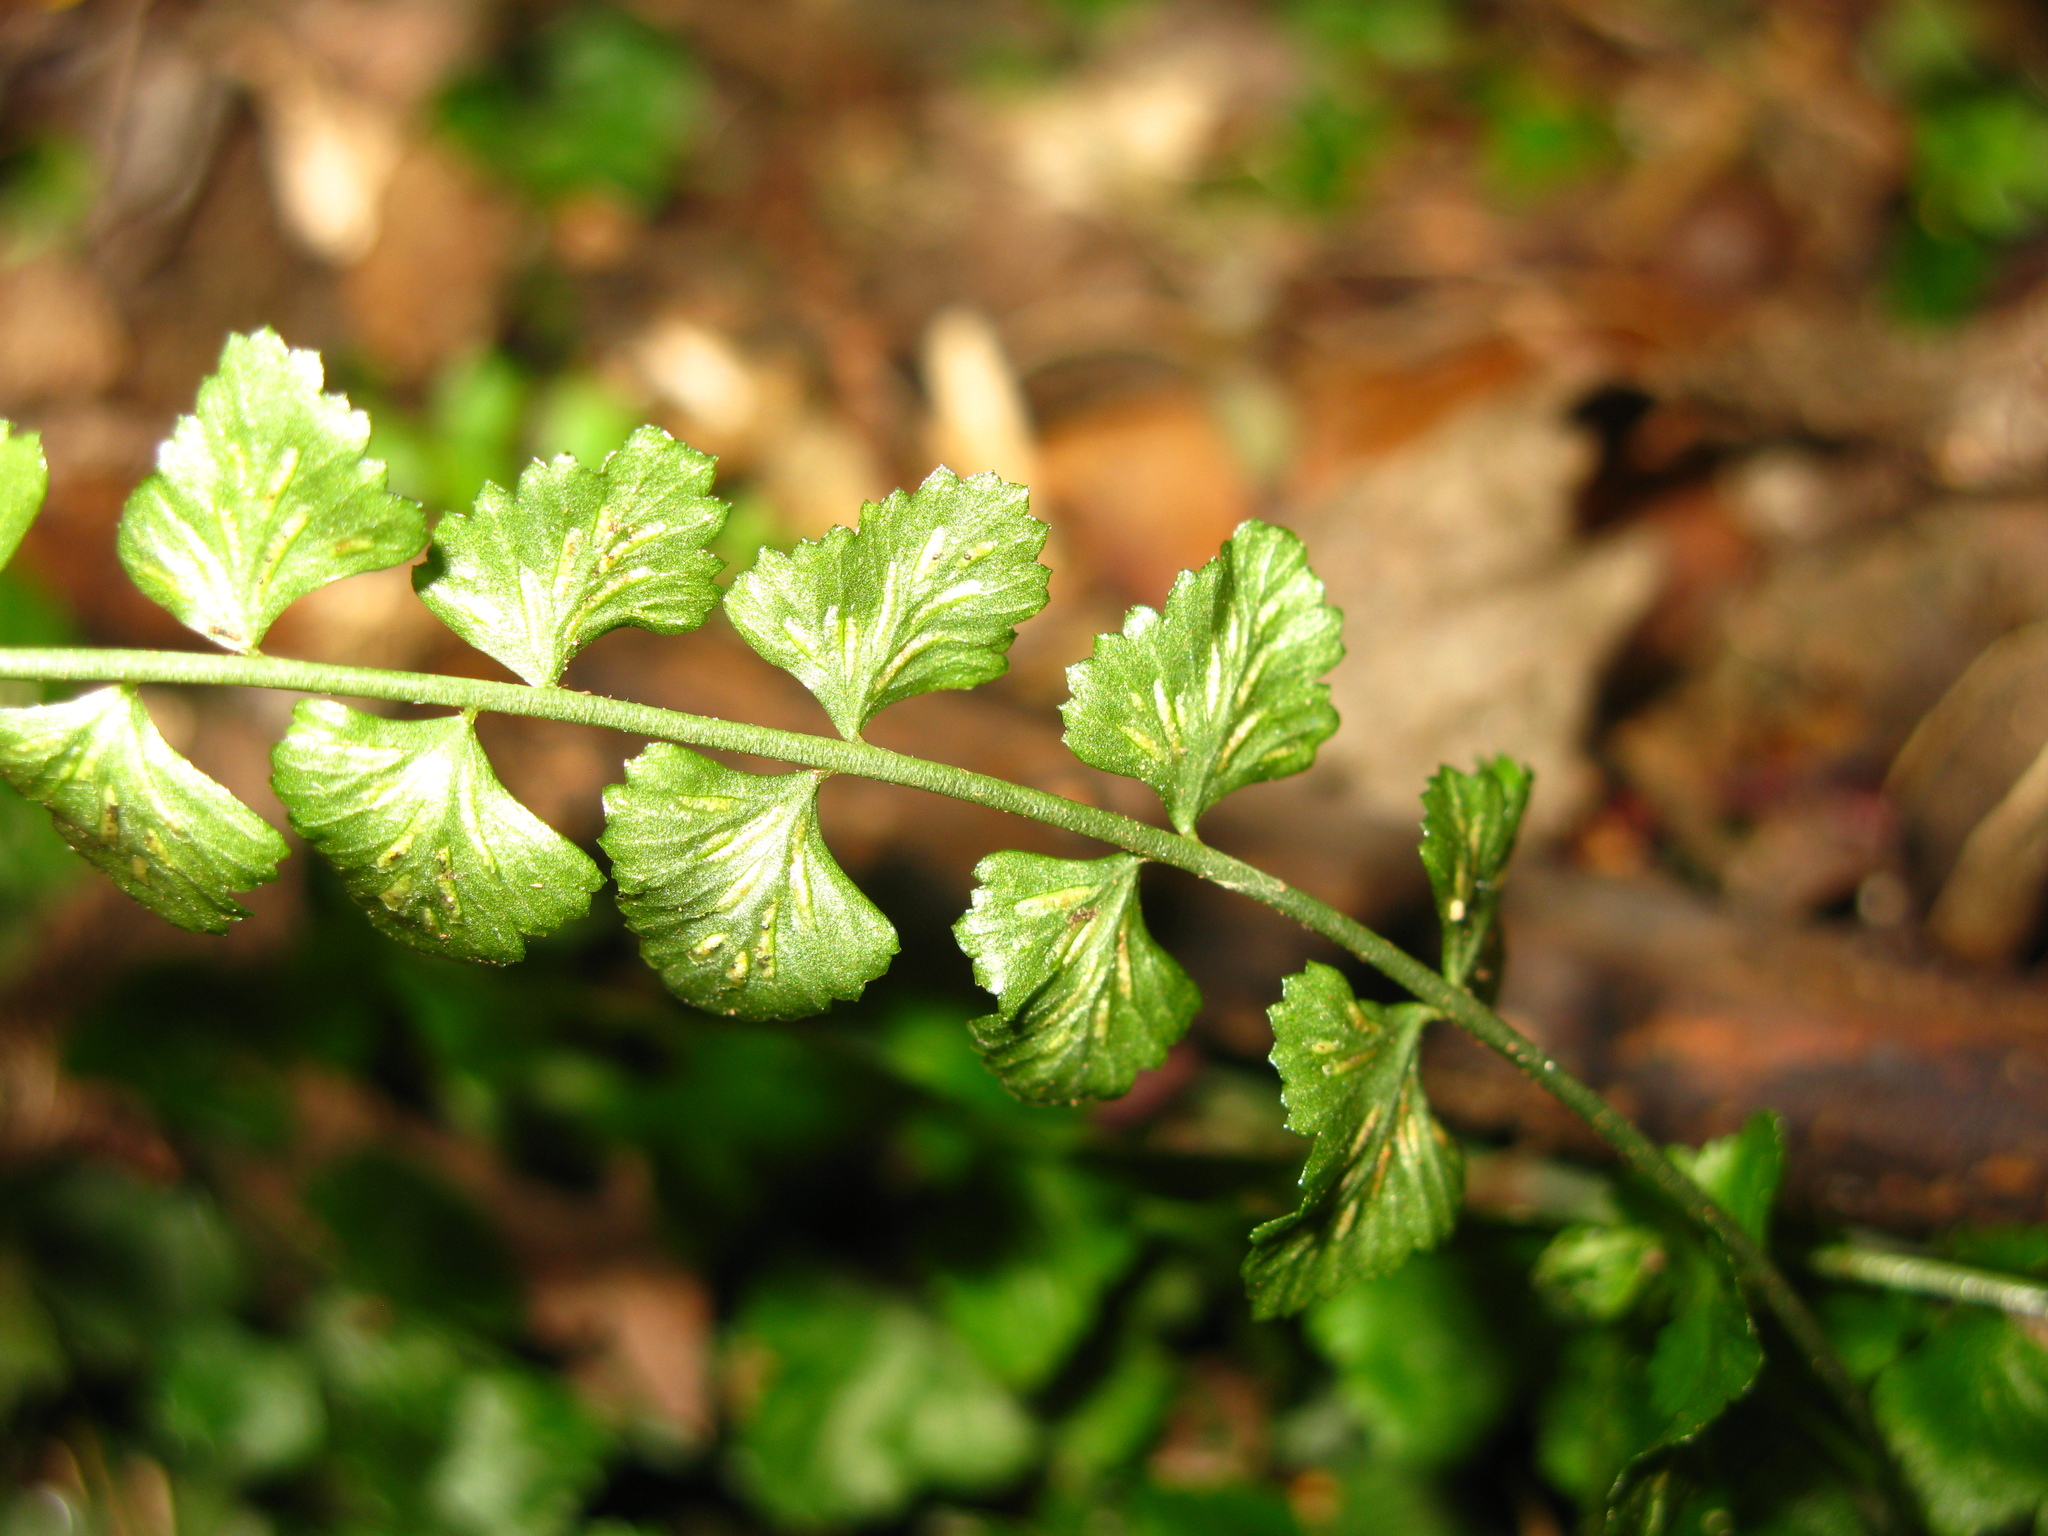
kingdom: Plantae
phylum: Tracheophyta
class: Polypodiopsida
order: Polypodiales
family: Aspleniaceae
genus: Asplenium
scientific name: Asplenium flabellifolium
